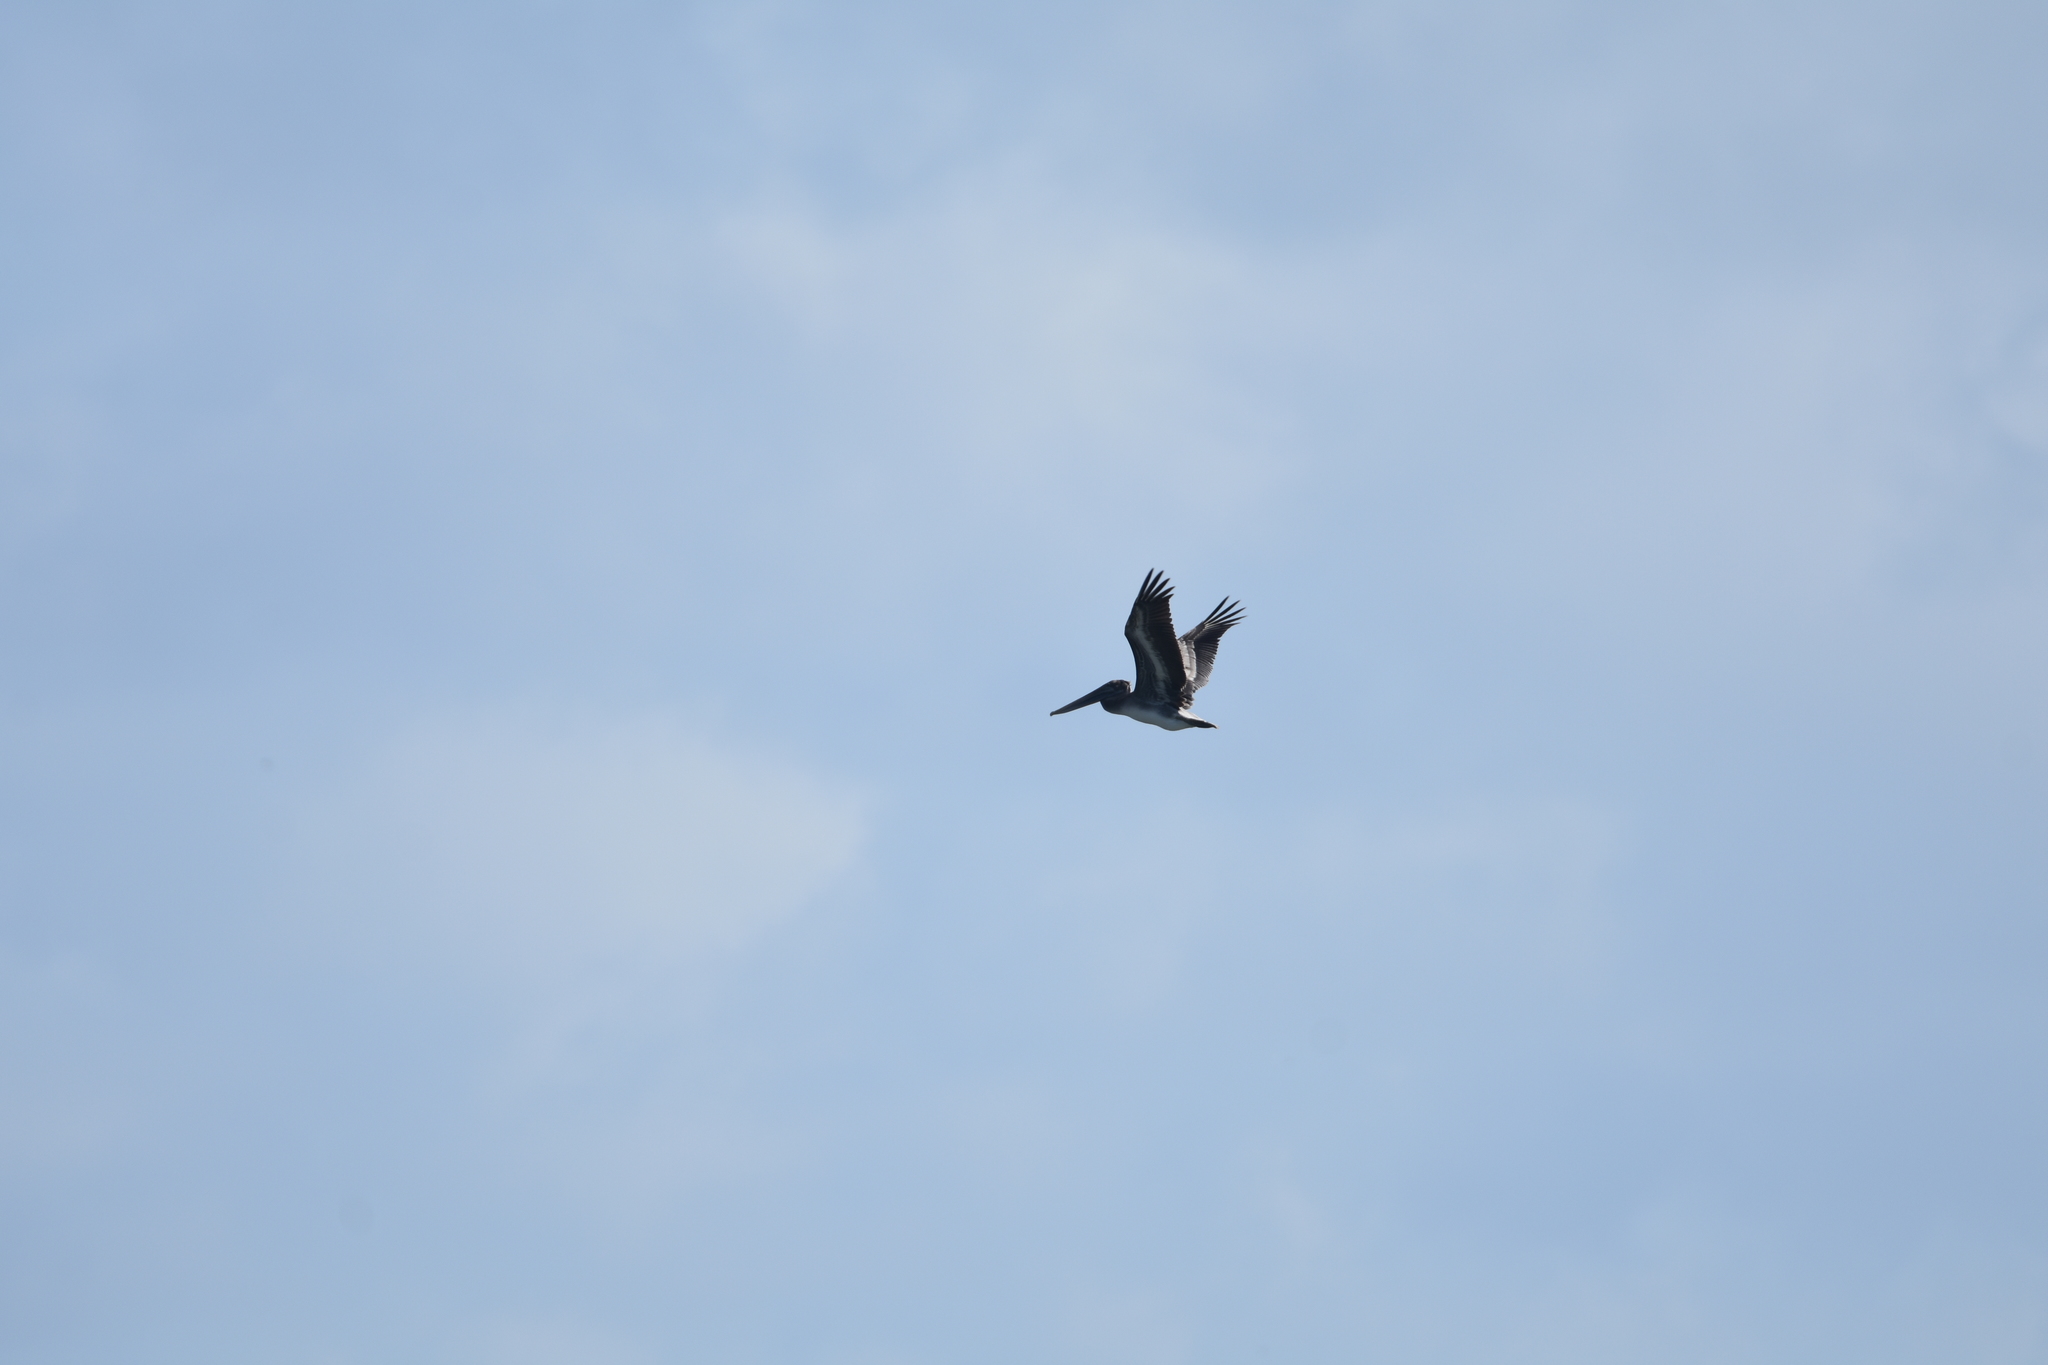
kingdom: Animalia
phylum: Chordata
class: Aves
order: Pelecaniformes
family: Pelecanidae
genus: Pelecanus
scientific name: Pelecanus occidentalis
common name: Brown pelican
